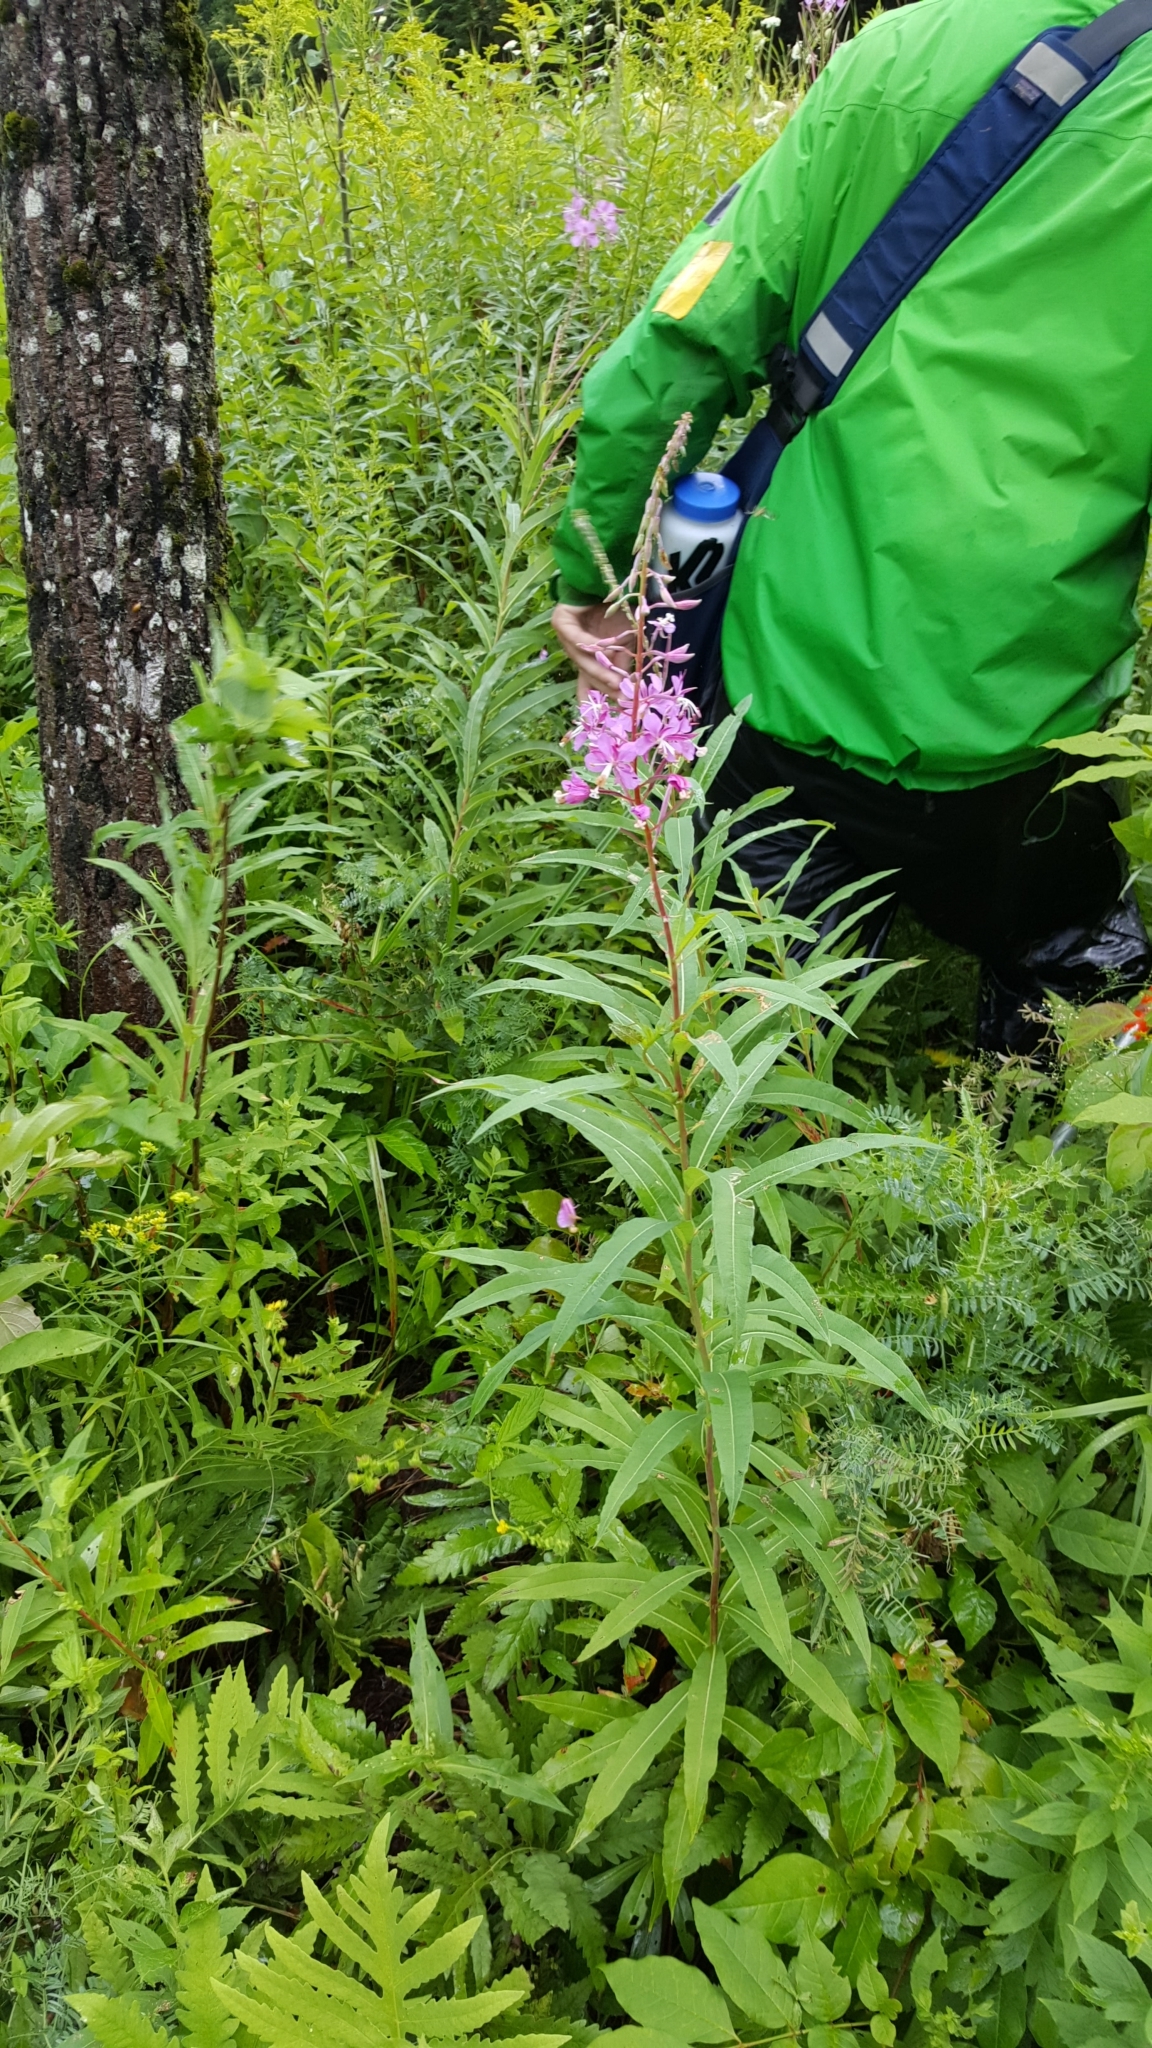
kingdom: Plantae
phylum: Tracheophyta
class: Magnoliopsida
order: Myrtales
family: Onagraceae
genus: Chamaenerion
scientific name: Chamaenerion angustifolium
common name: Fireweed
